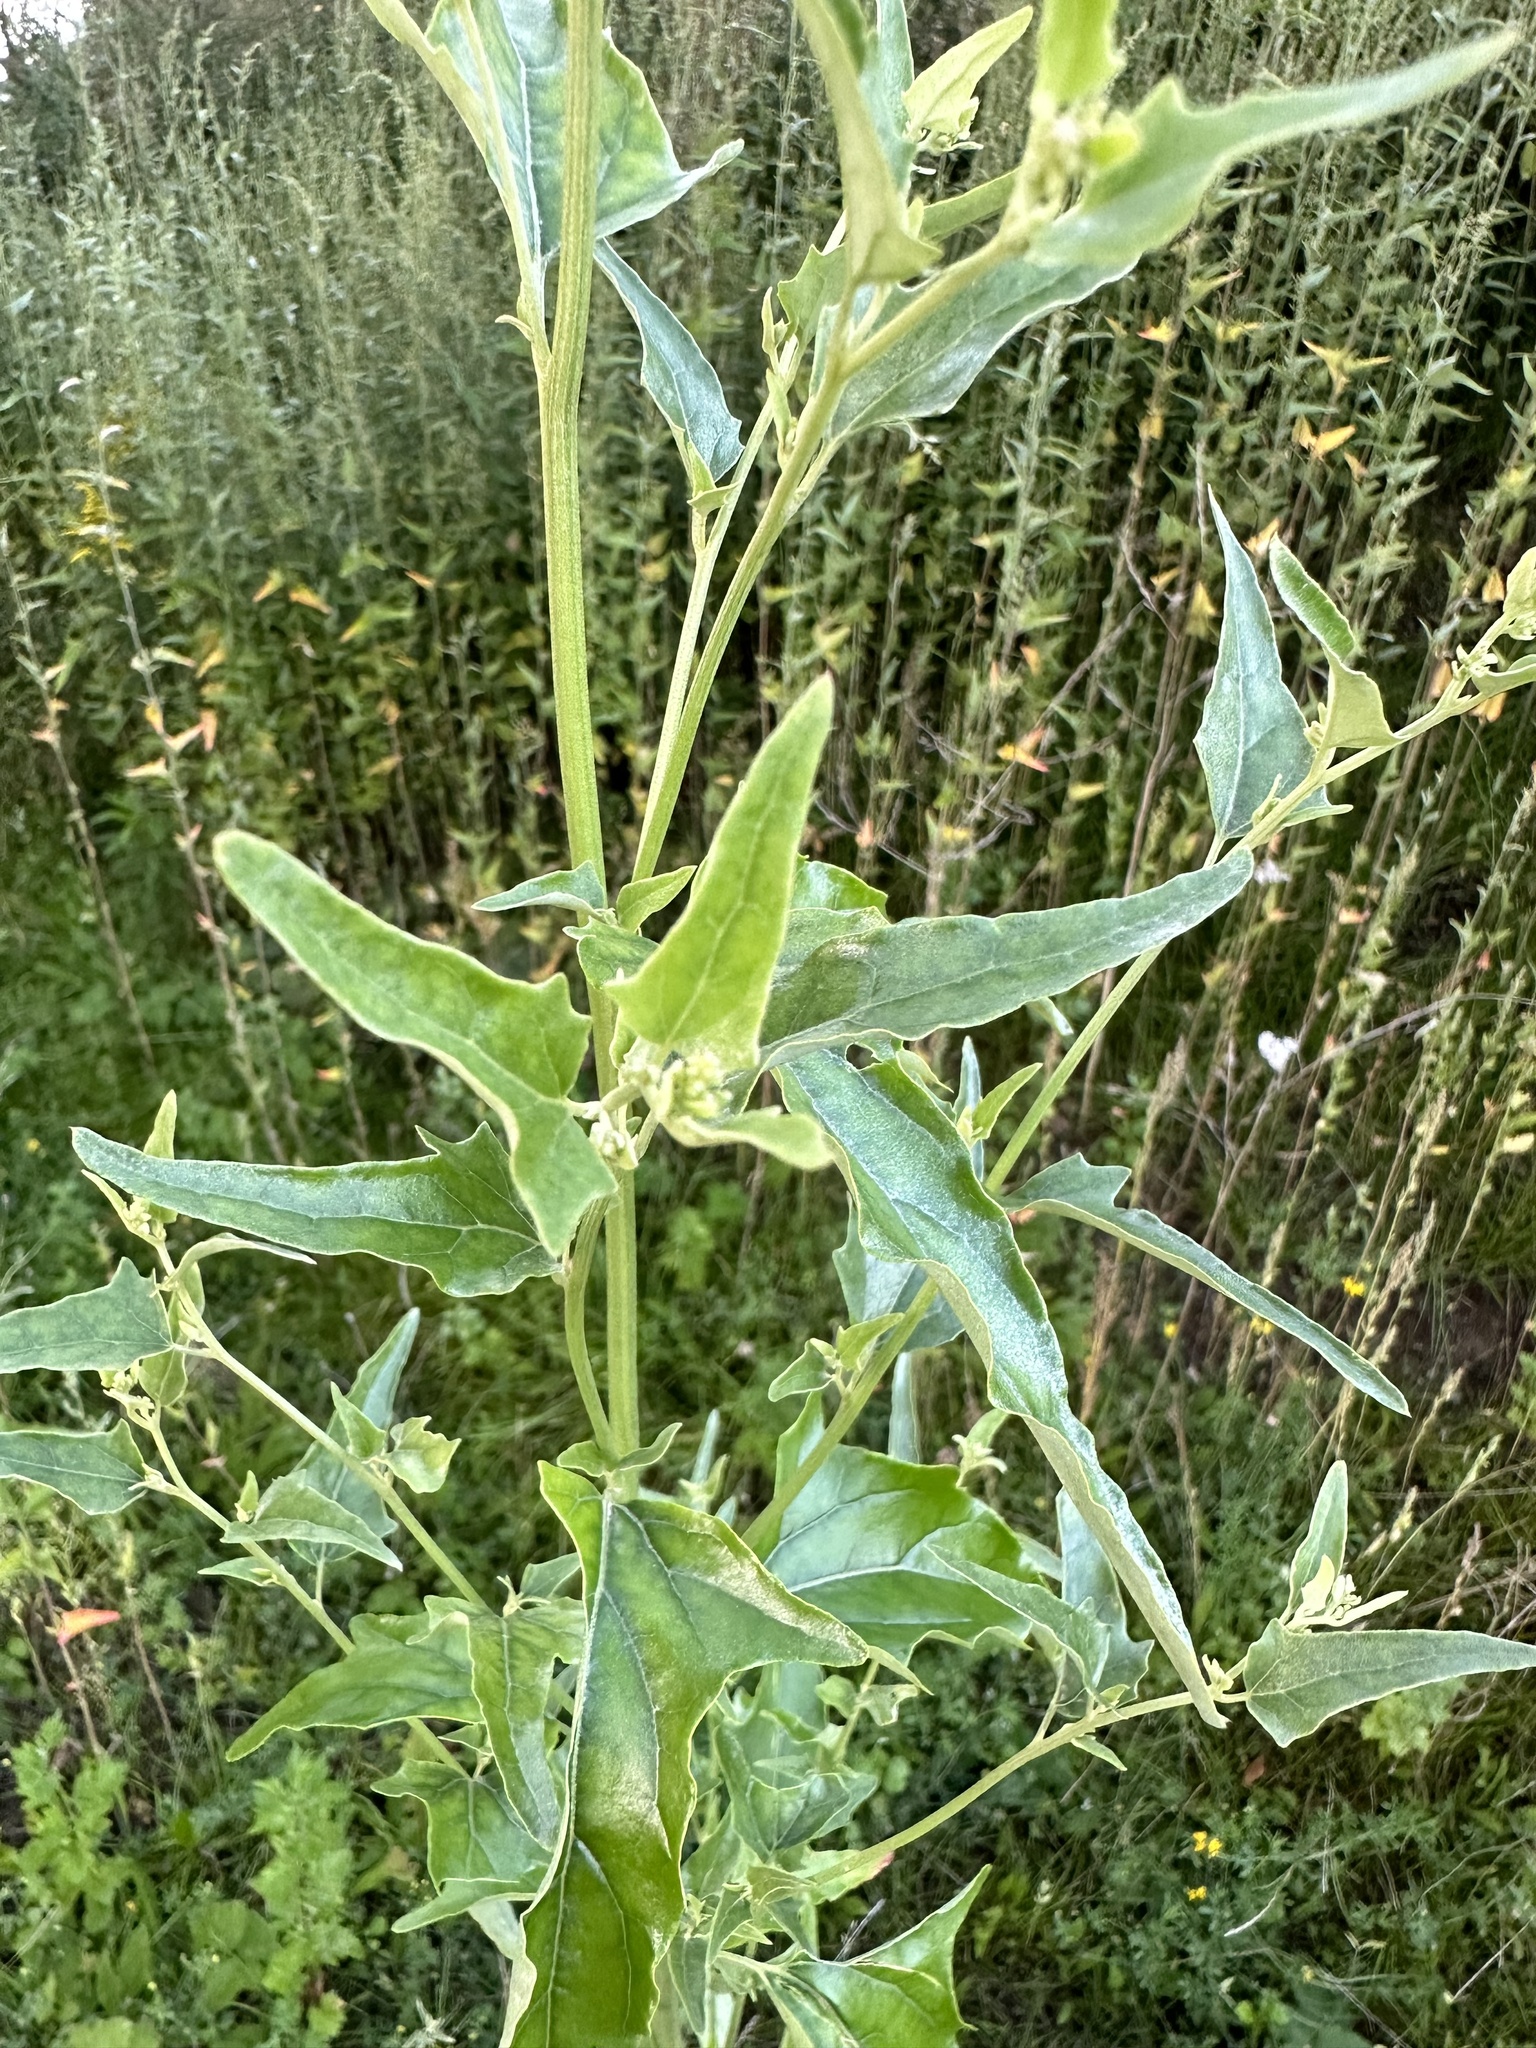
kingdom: Plantae
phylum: Tracheophyta
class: Magnoliopsida
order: Caryophyllales
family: Amaranthaceae
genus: Atriplex
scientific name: Atriplex sagittata
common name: Purple orache
